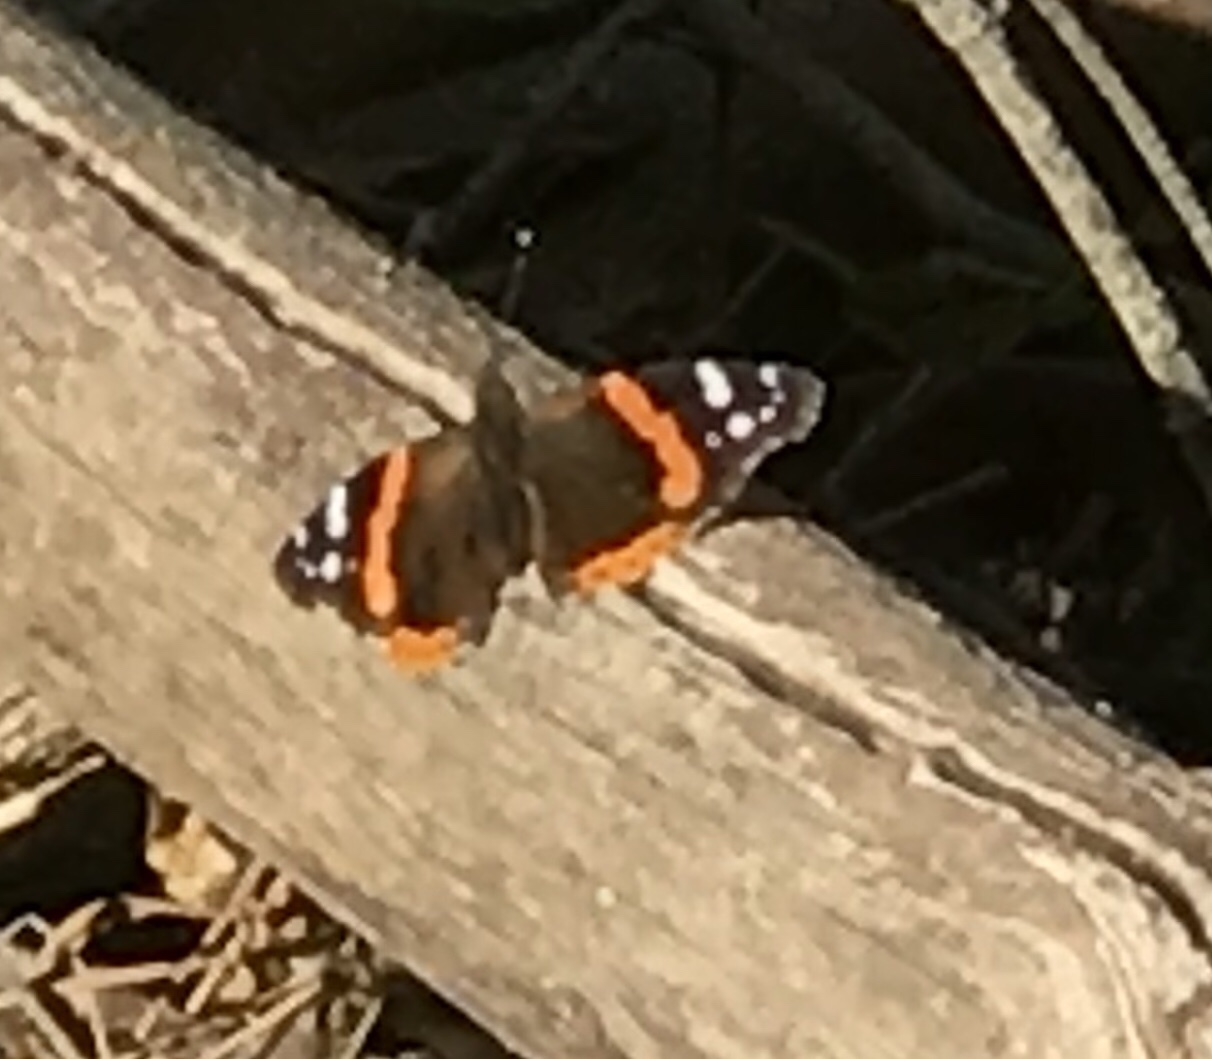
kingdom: Animalia
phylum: Arthropoda
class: Insecta
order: Lepidoptera
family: Nymphalidae
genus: Vanessa
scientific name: Vanessa atalanta
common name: Red admiral
